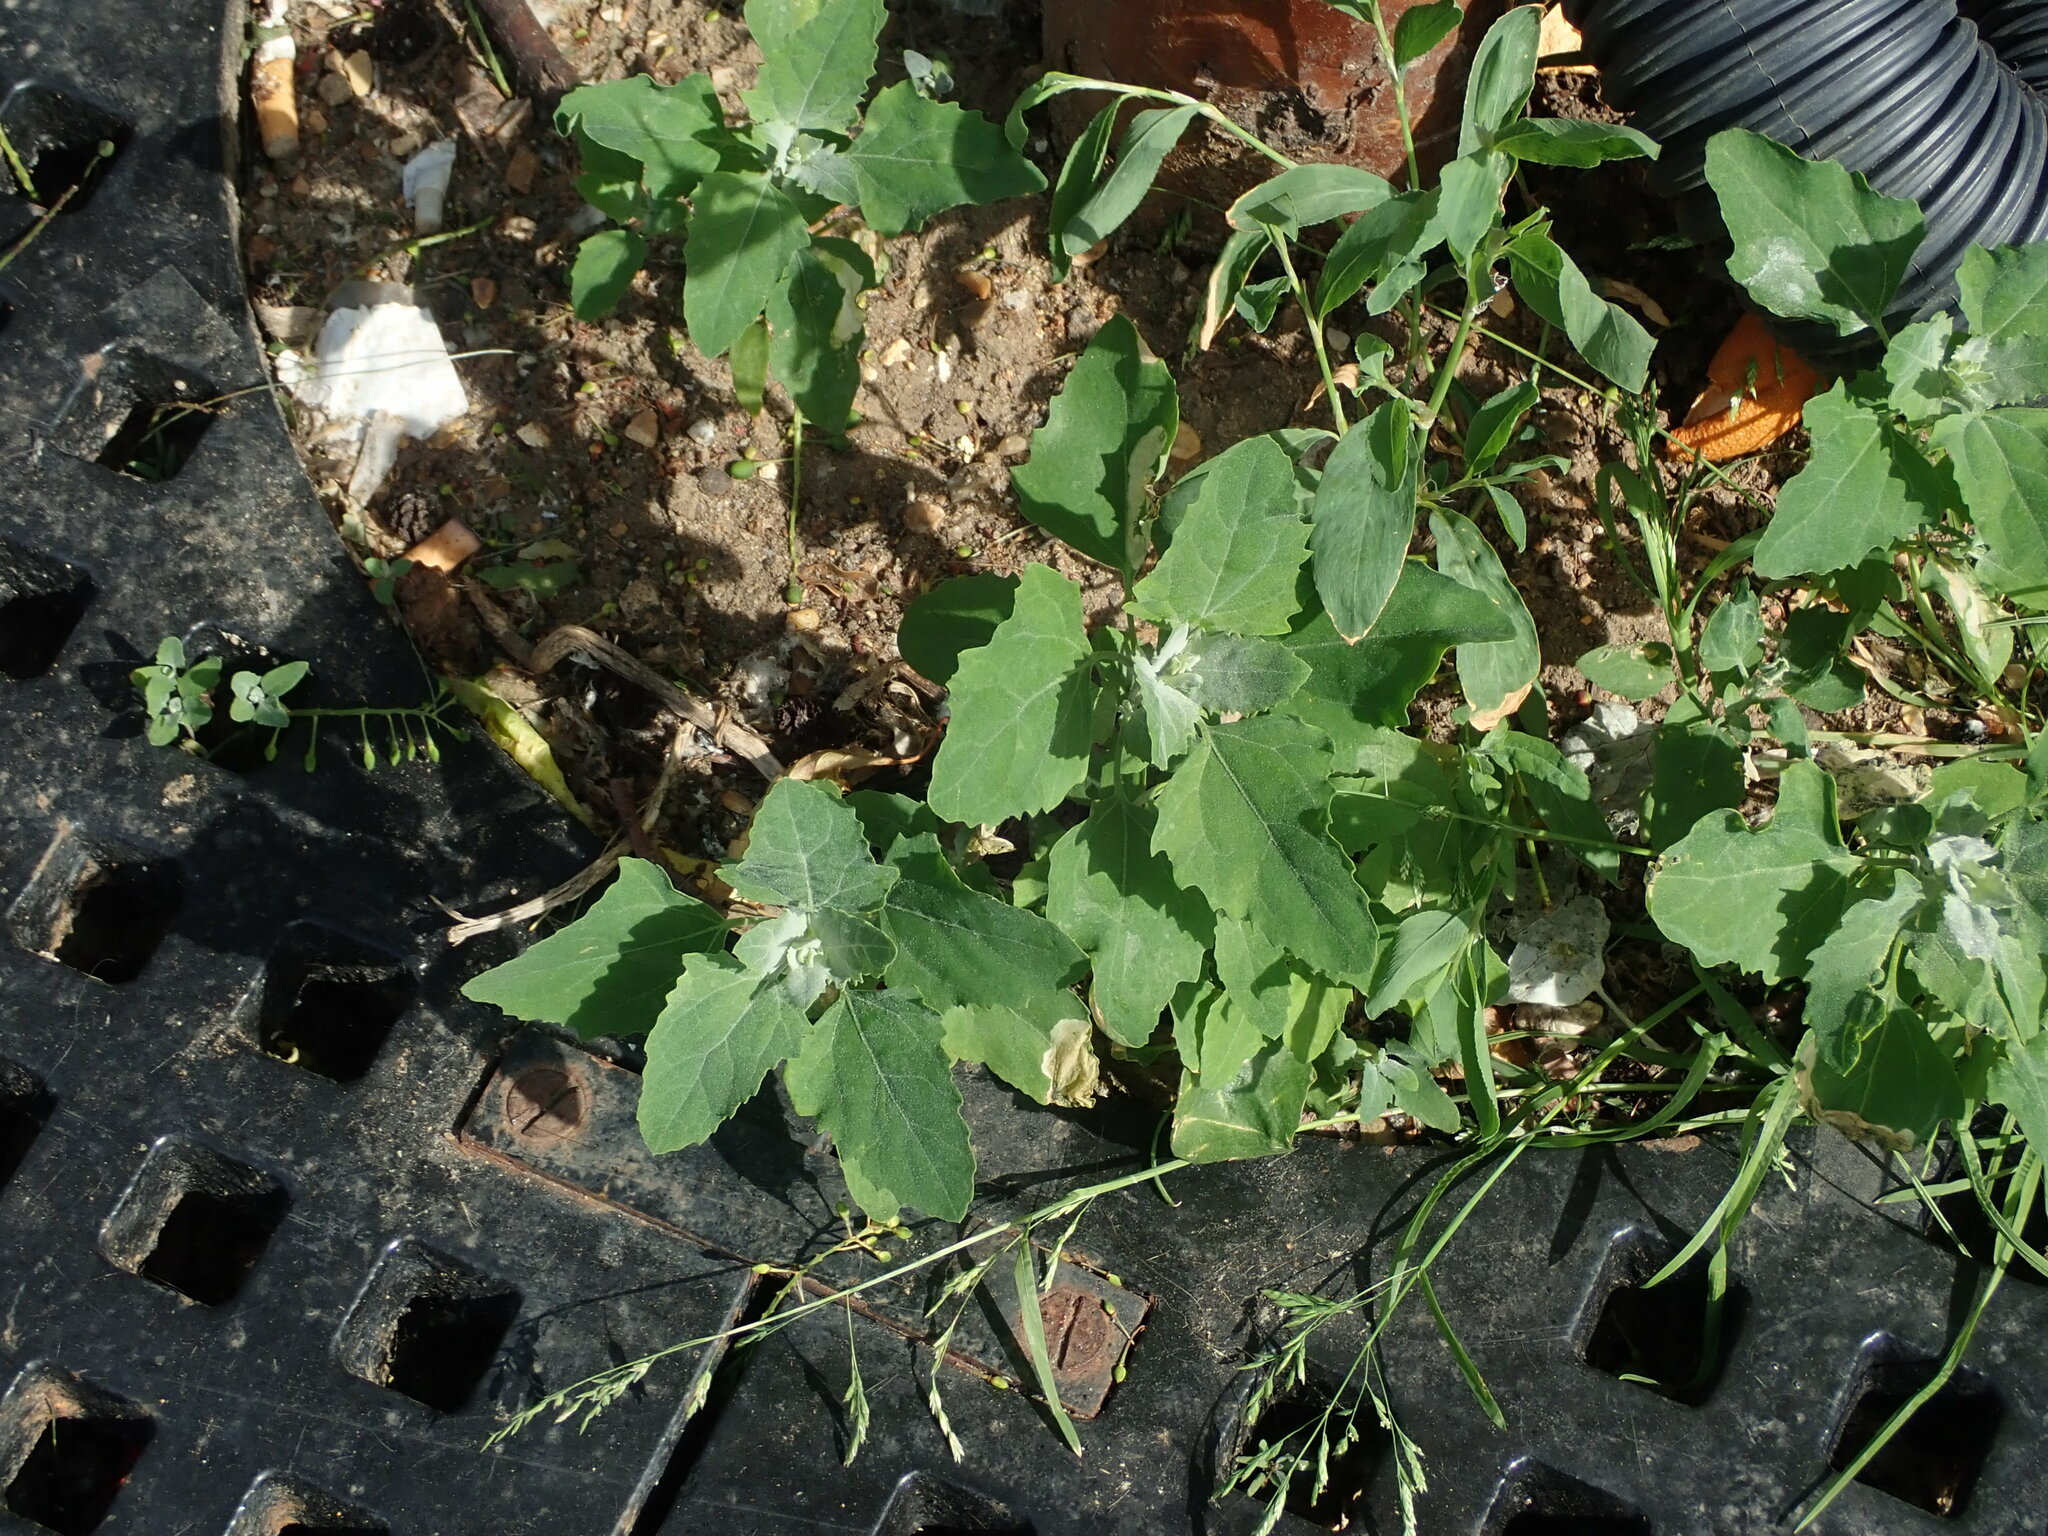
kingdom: Plantae
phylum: Tracheophyta
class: Magnoliopsida
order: Caryophyllales
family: Amaranthaceae
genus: Chenopodium
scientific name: Chenopodium album
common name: Fat-hen
